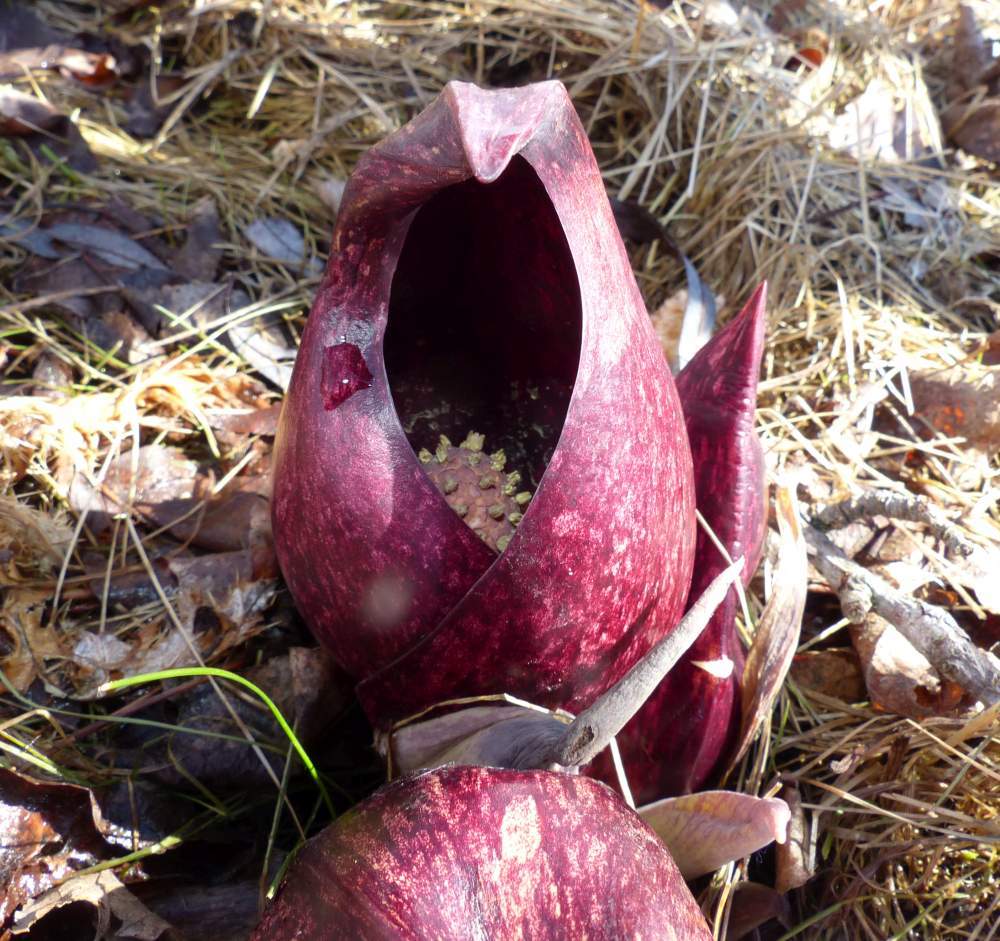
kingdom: Plantae
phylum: Tracheophyta
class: Liliopsida
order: Alismatales
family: Araceae
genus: Symplocarpus
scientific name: Symplocarpus foetidus
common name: Eastern skunk cabbage
